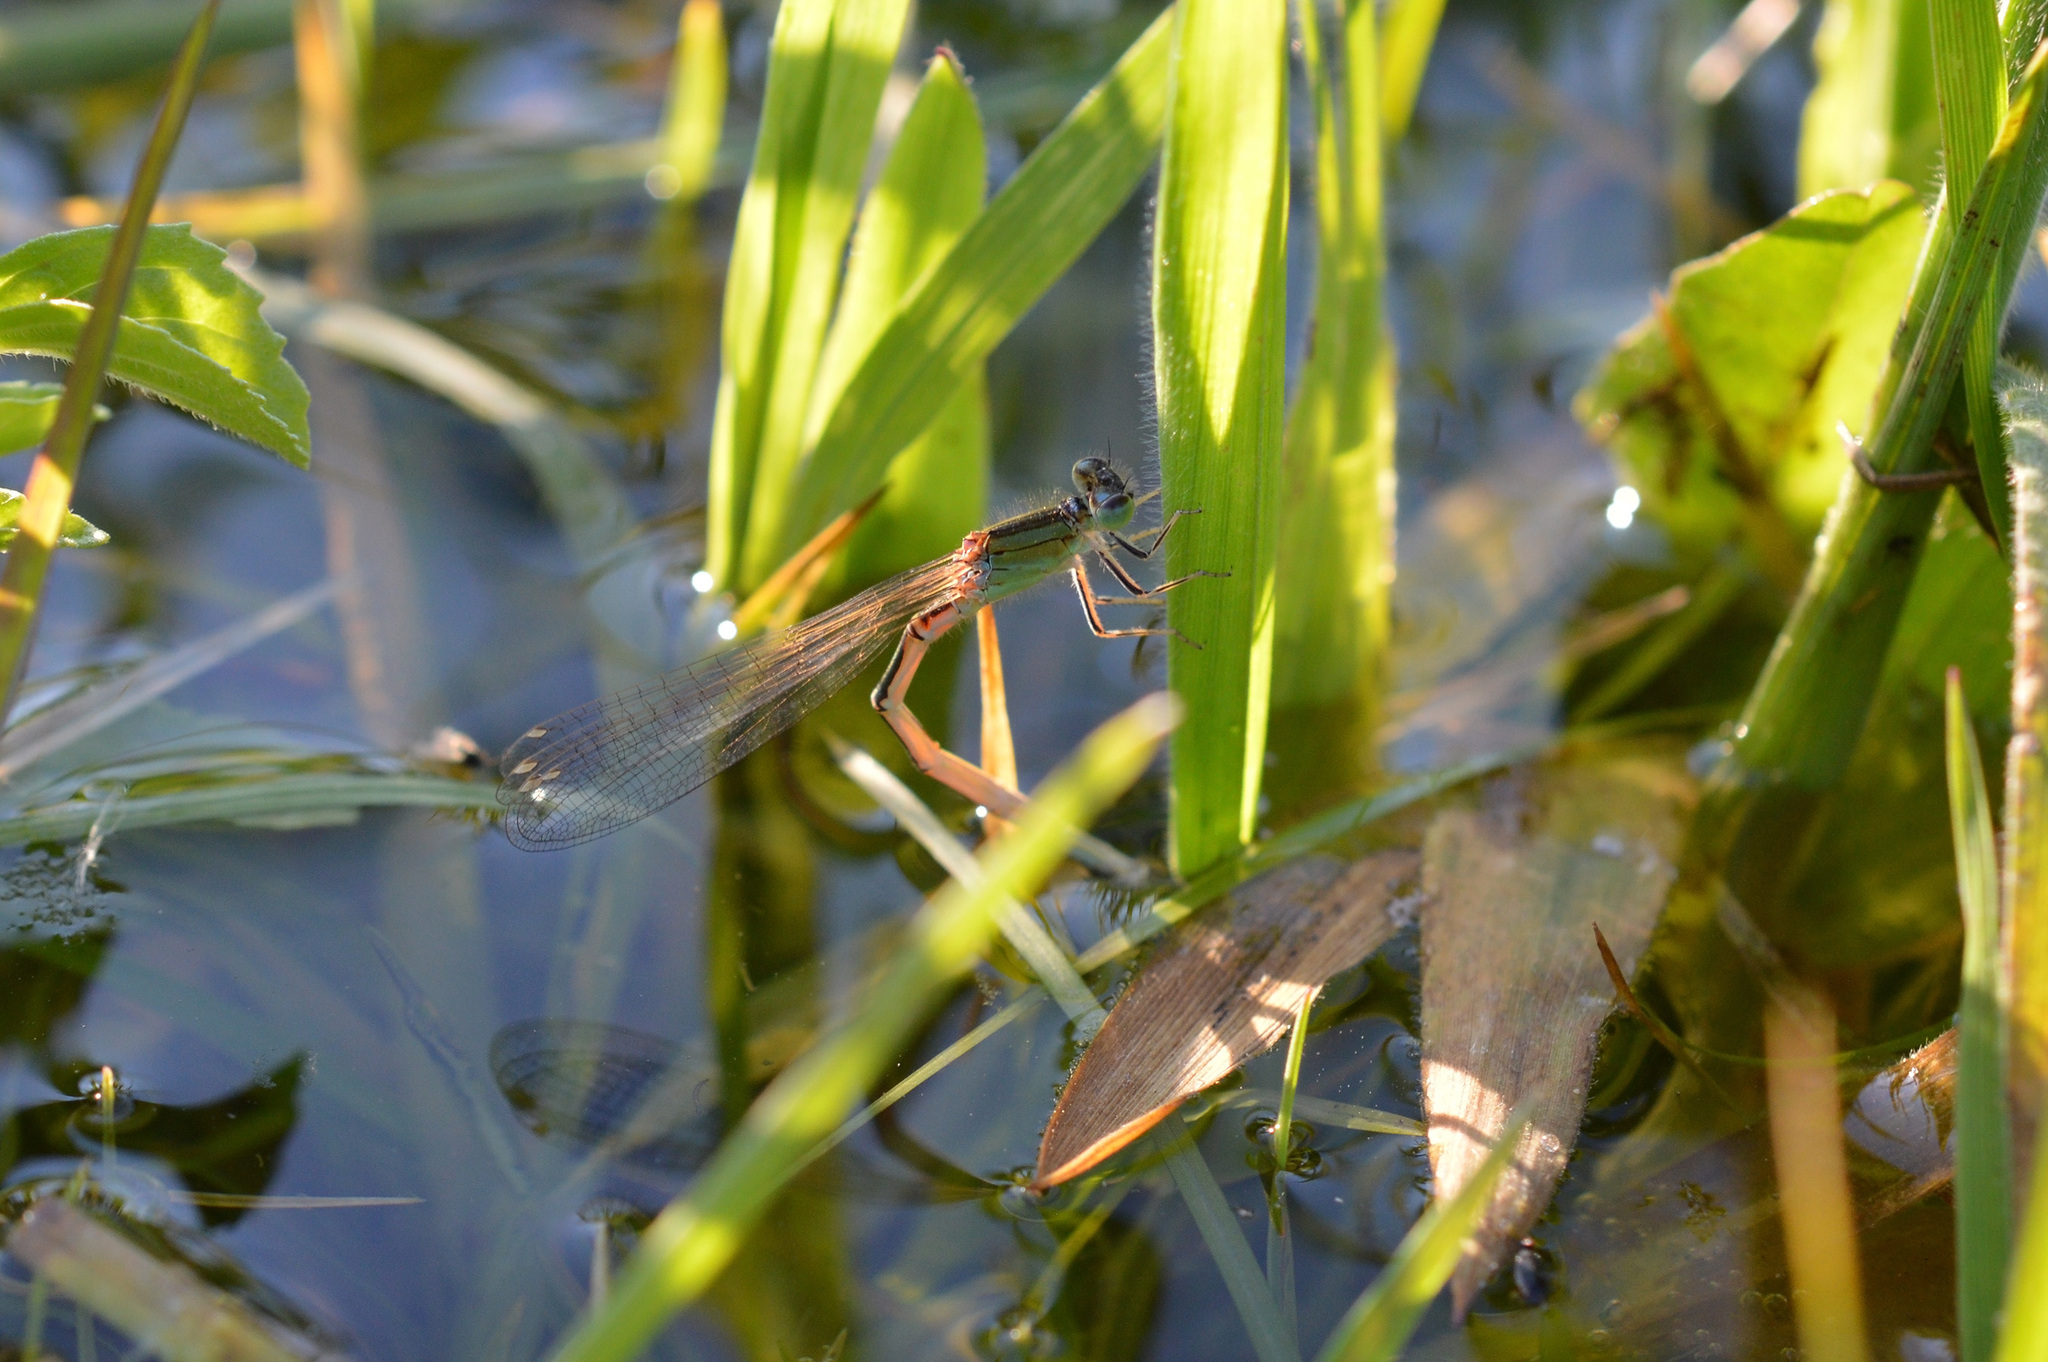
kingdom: Animalia
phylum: Arthropoda
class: Insecta
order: Odonata
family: Coenagrionidae
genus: Ischnura
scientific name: Ischnura pumilio
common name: Scarce blue-tailed damselfly
